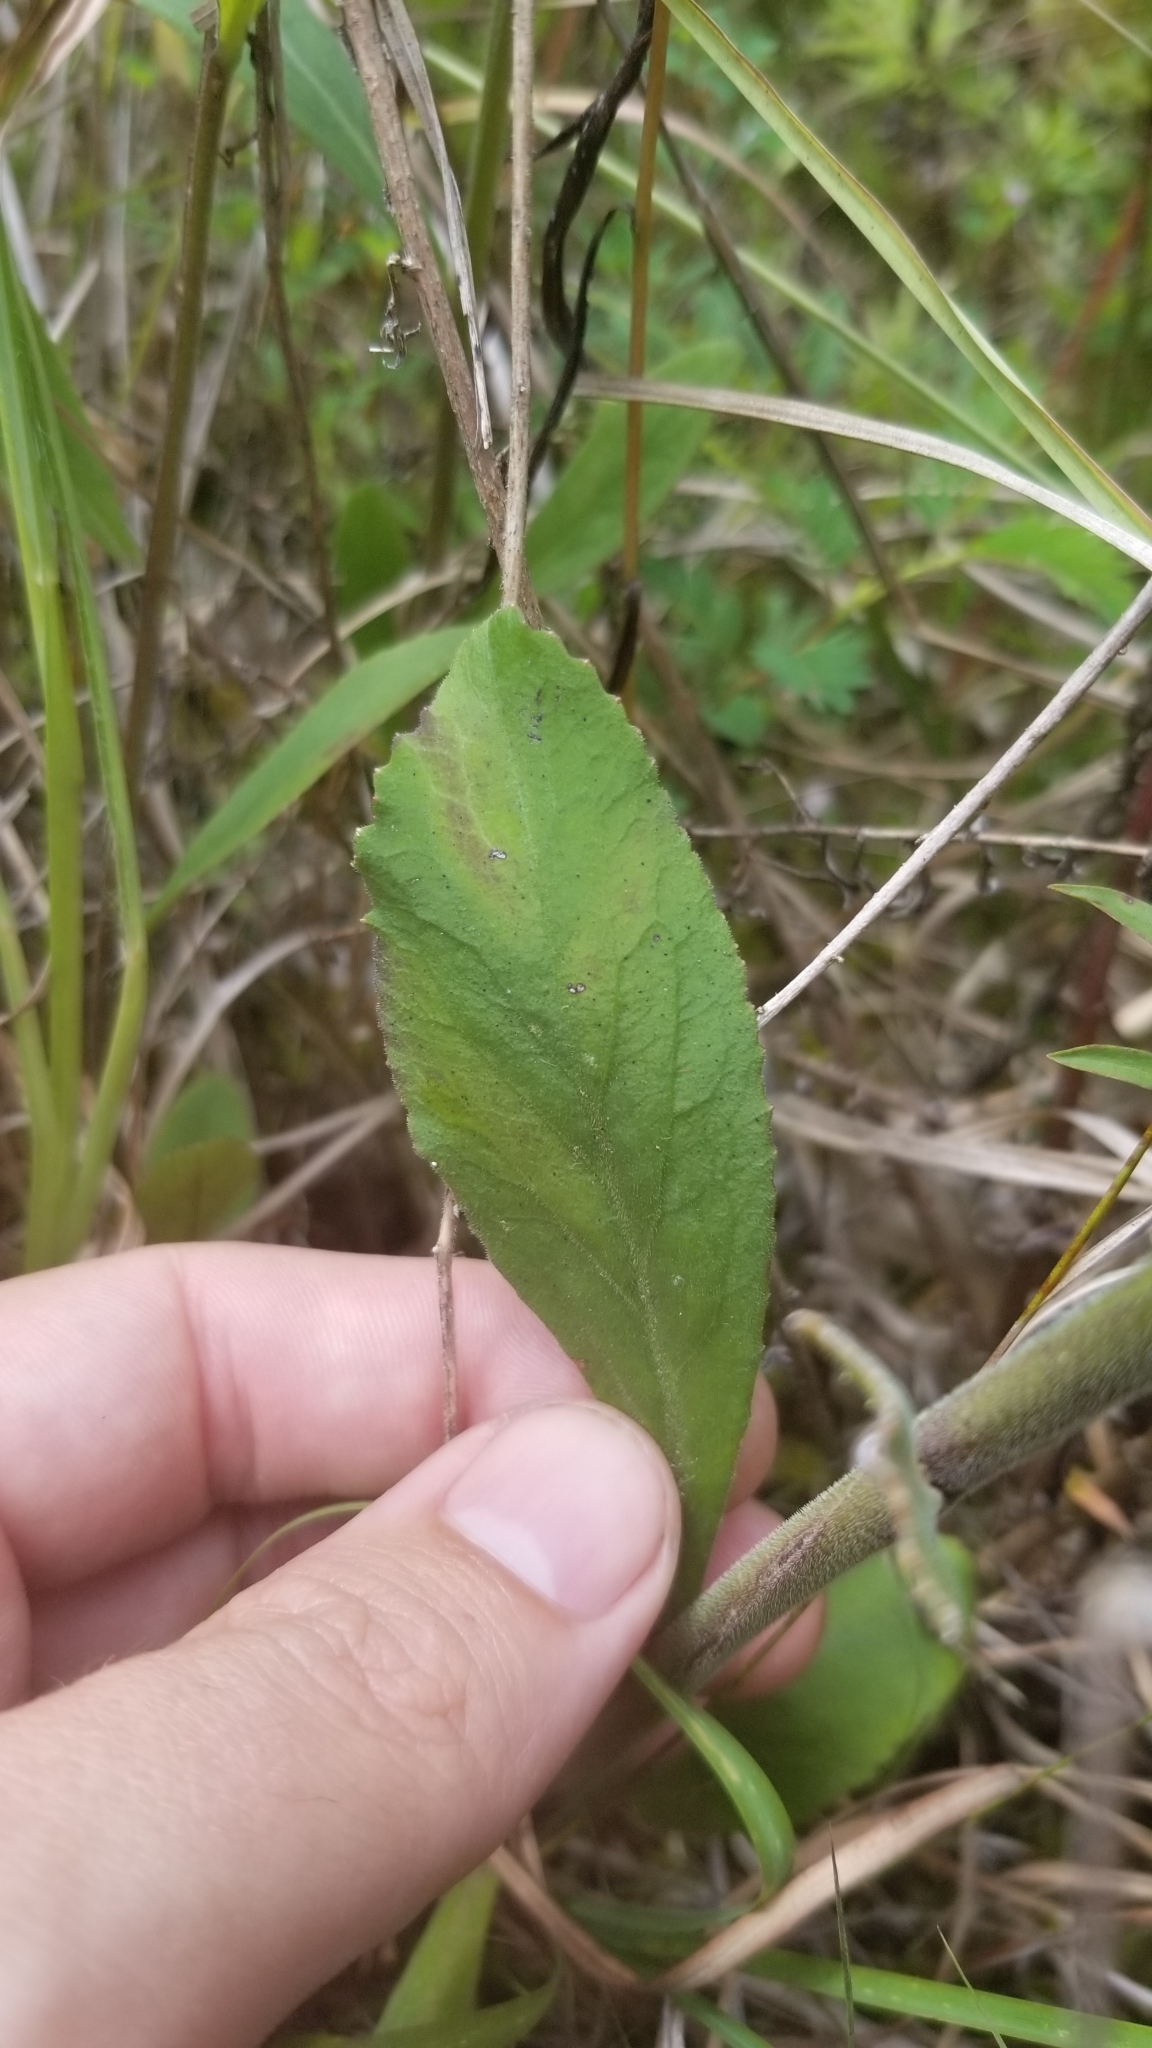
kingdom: Plantae
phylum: Tracheophyta
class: Magnoliopsida
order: Asterales
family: Campanulaceae
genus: Lobelia
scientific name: Lobelia puberula
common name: Purple dewdrop
